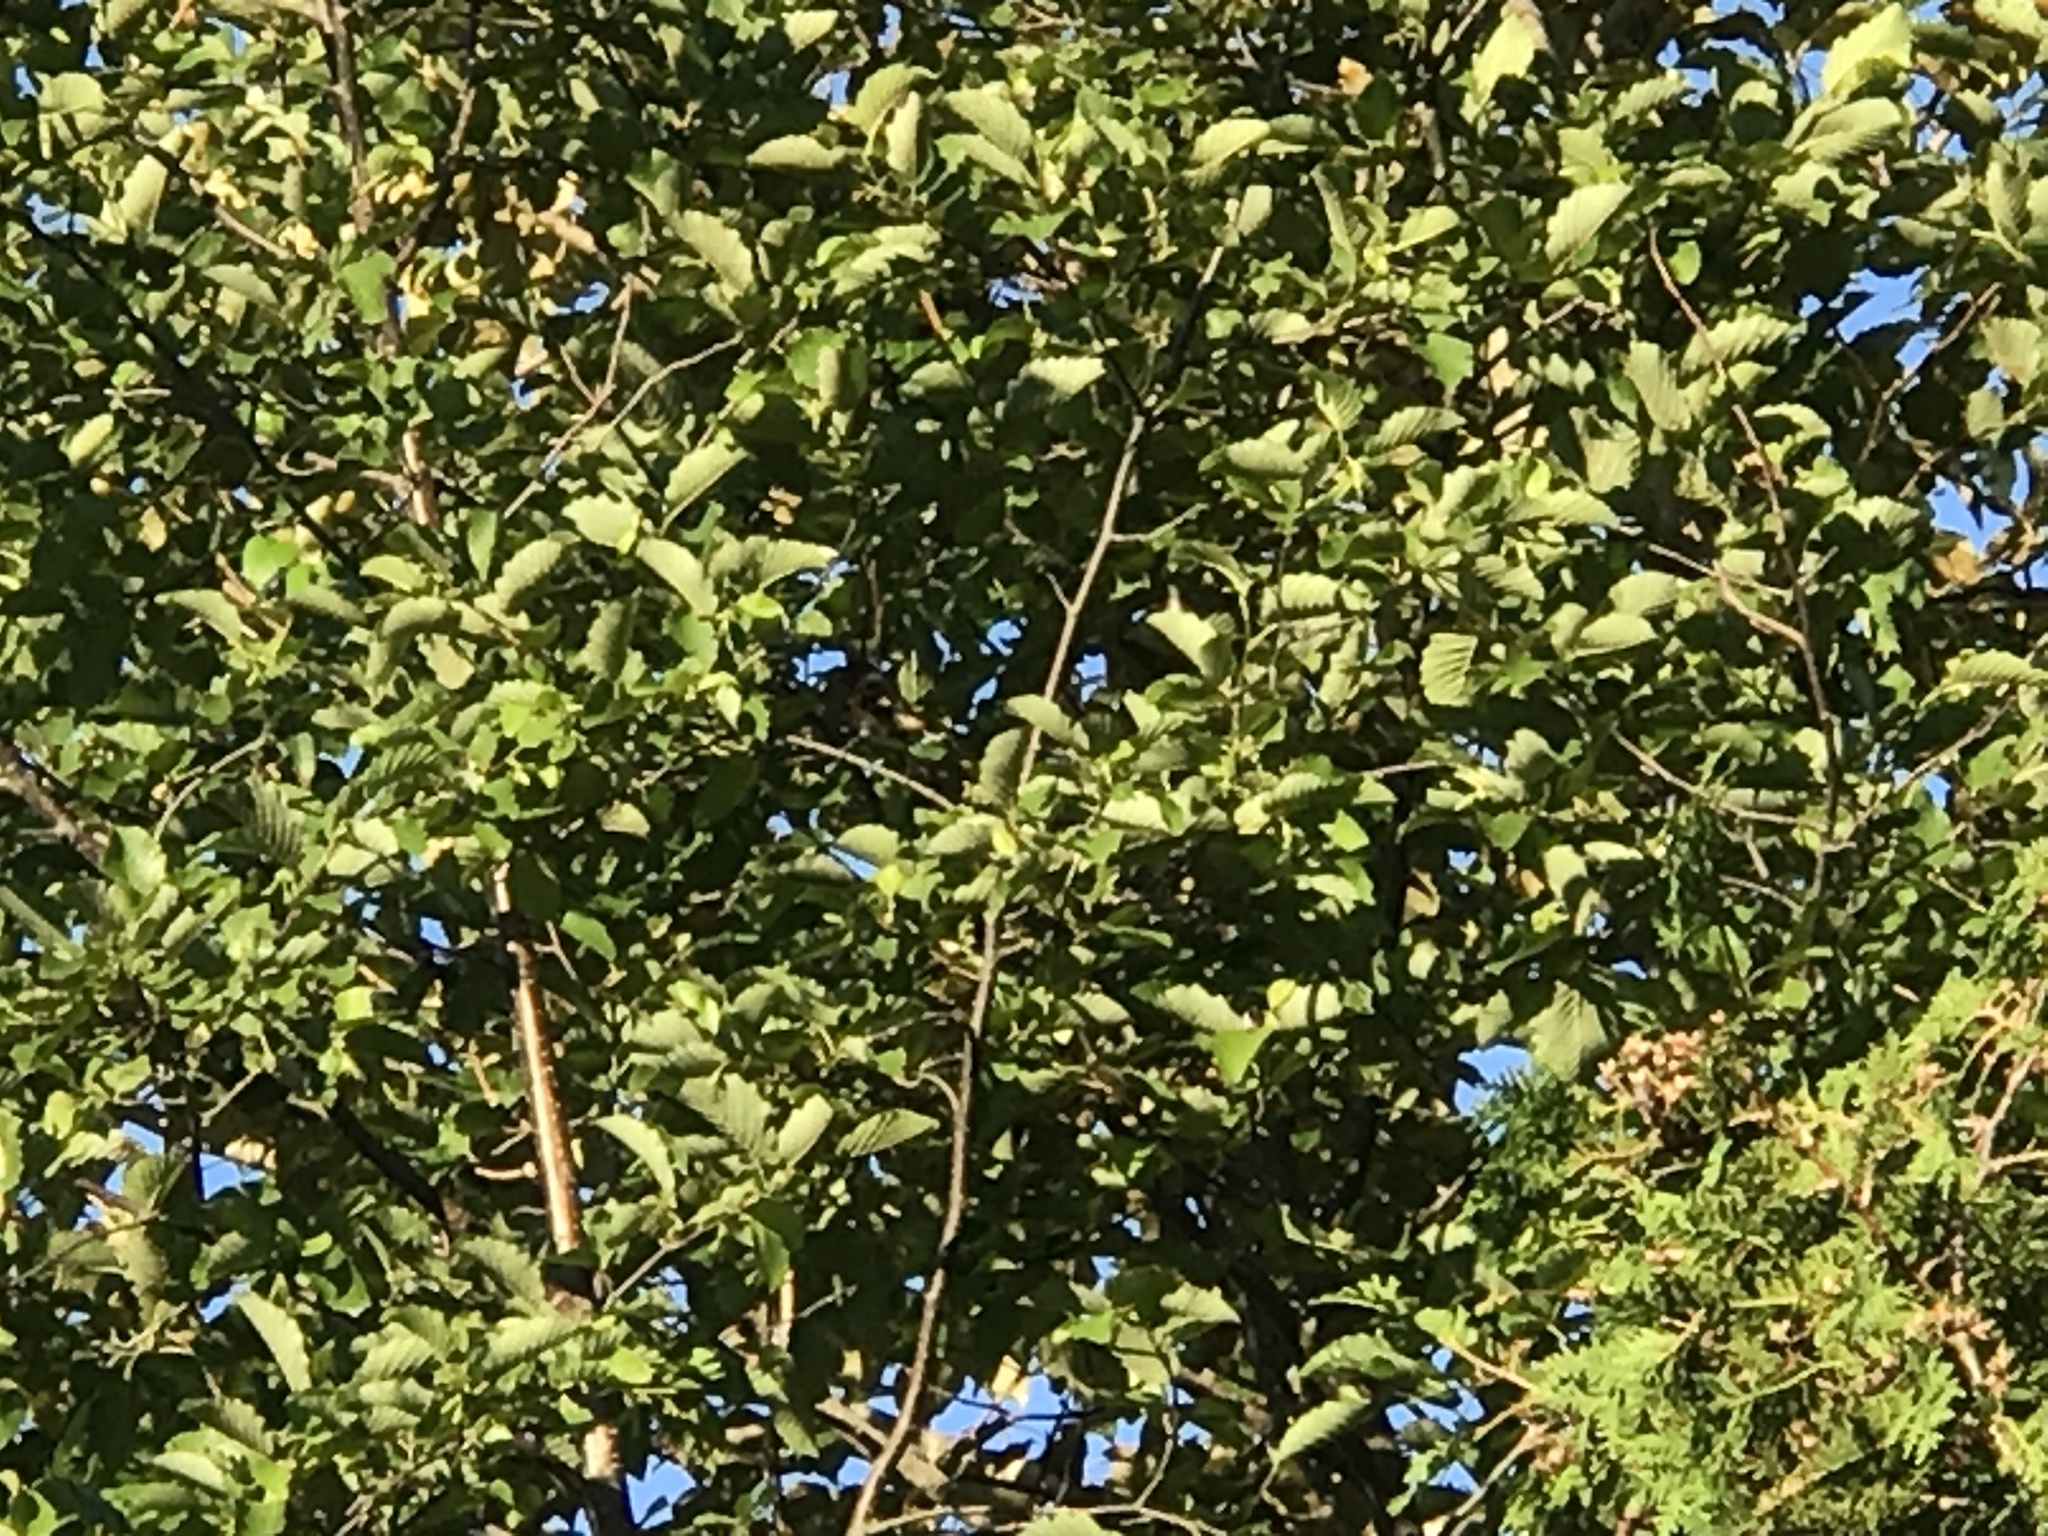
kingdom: Animalia
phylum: Chordata
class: Aves
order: Passeriformes
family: Parulidae
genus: Setophaga
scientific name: Setophaga ruticilla
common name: American redstart
